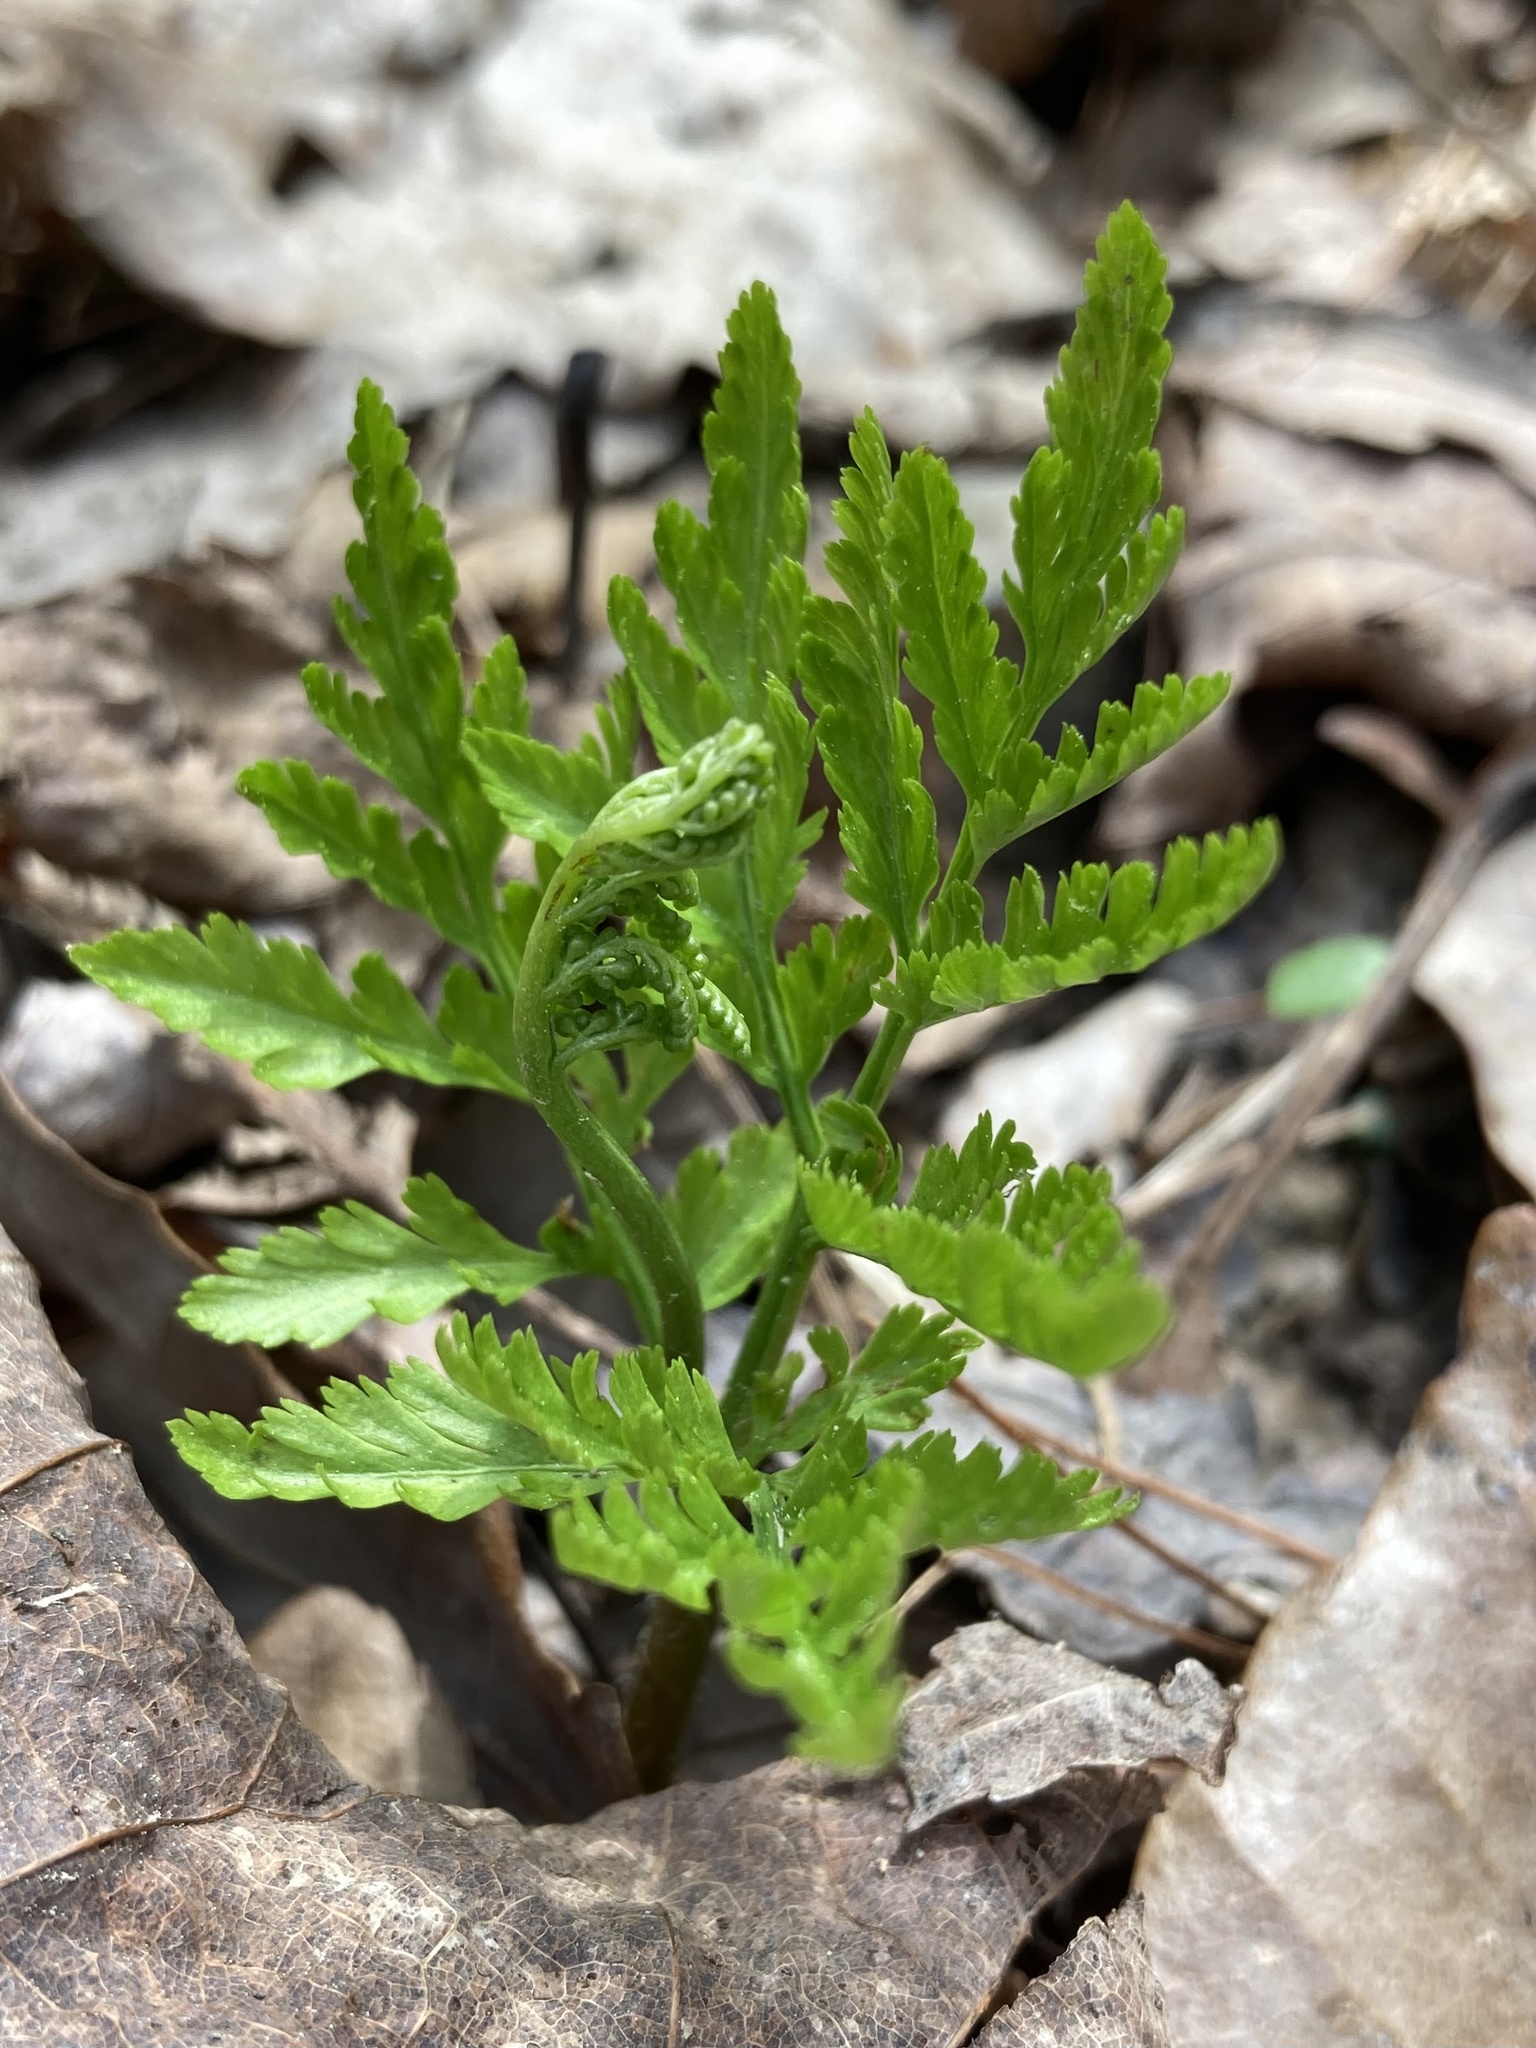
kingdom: Plantae
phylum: Tracheophyta
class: Polypodiopsida
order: Ophioglossales
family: Ophioglossaceae
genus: Botrypus
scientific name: Botrypus virginianus
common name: Common grapefern
